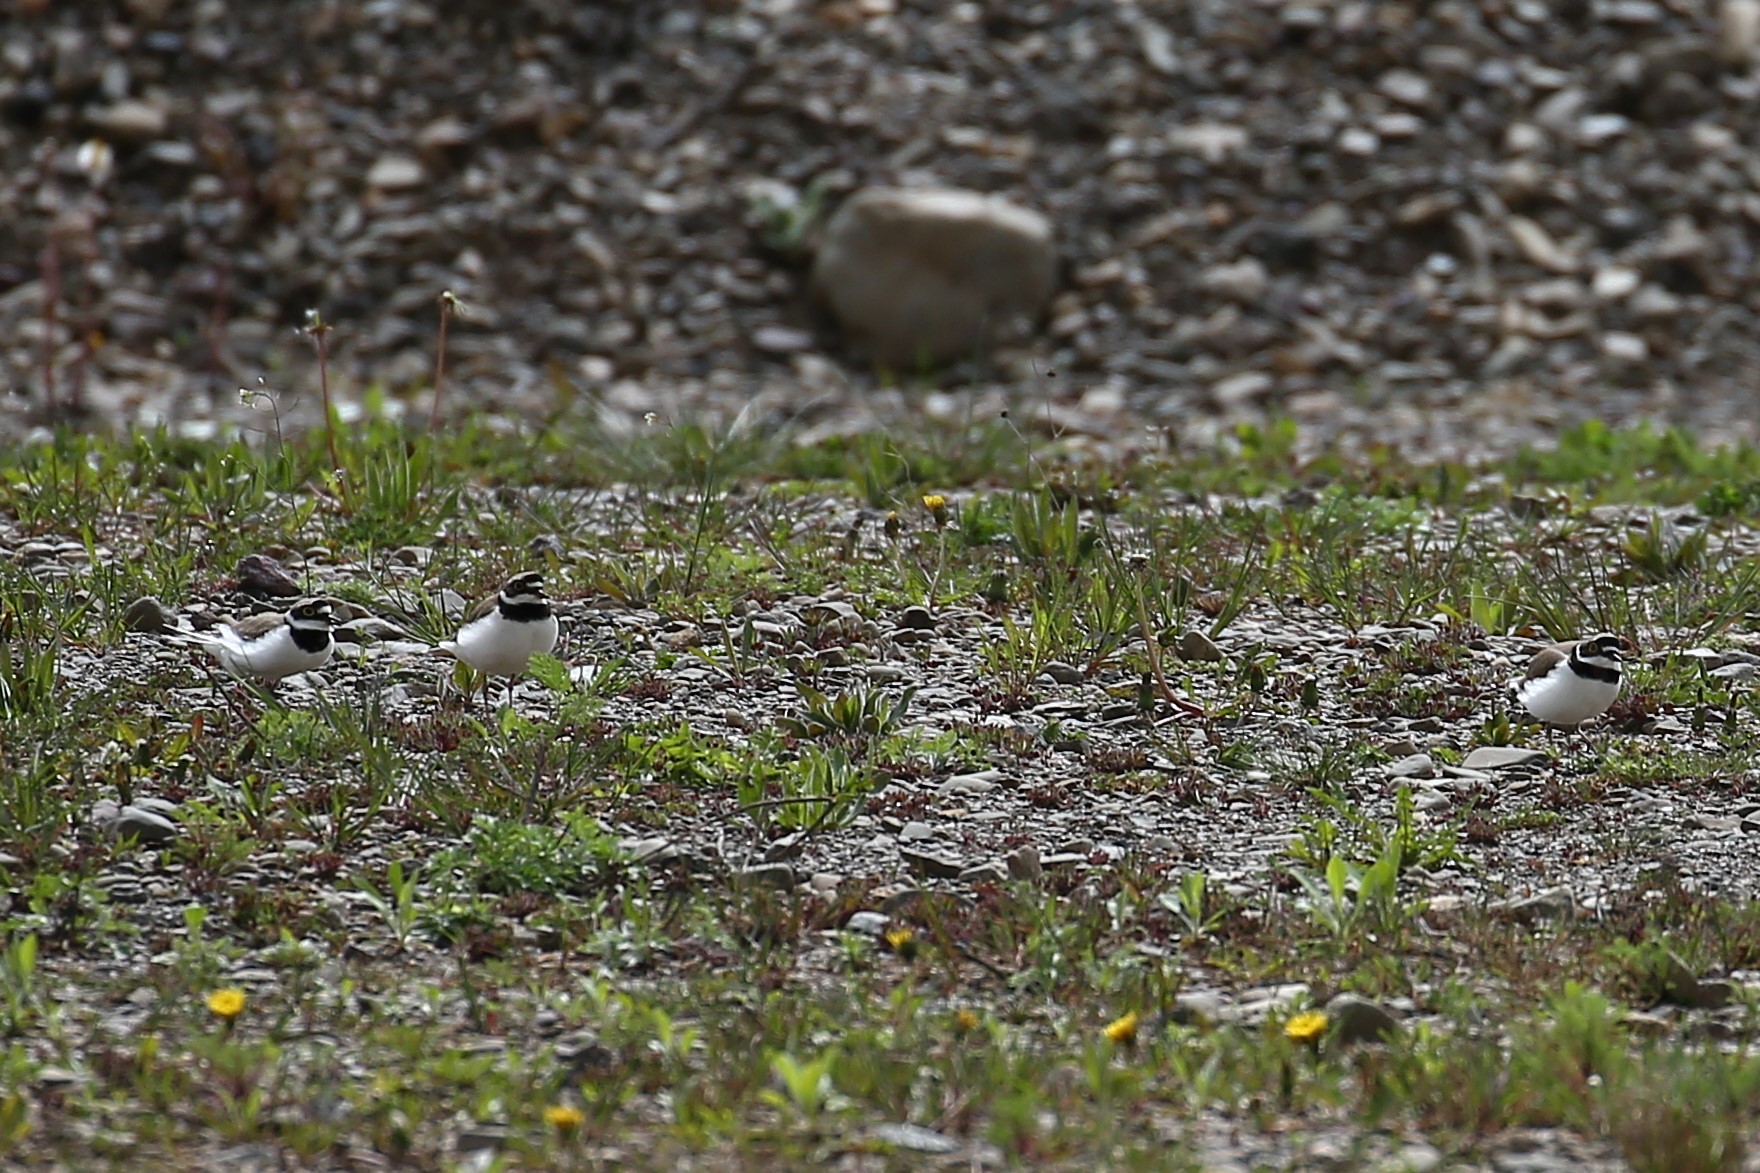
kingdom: Animalia
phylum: Chordata
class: Aves
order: Charadriiformes
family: Charadriidae
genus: Charadrius
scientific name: Charadrius dubius
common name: Little ringed plover
